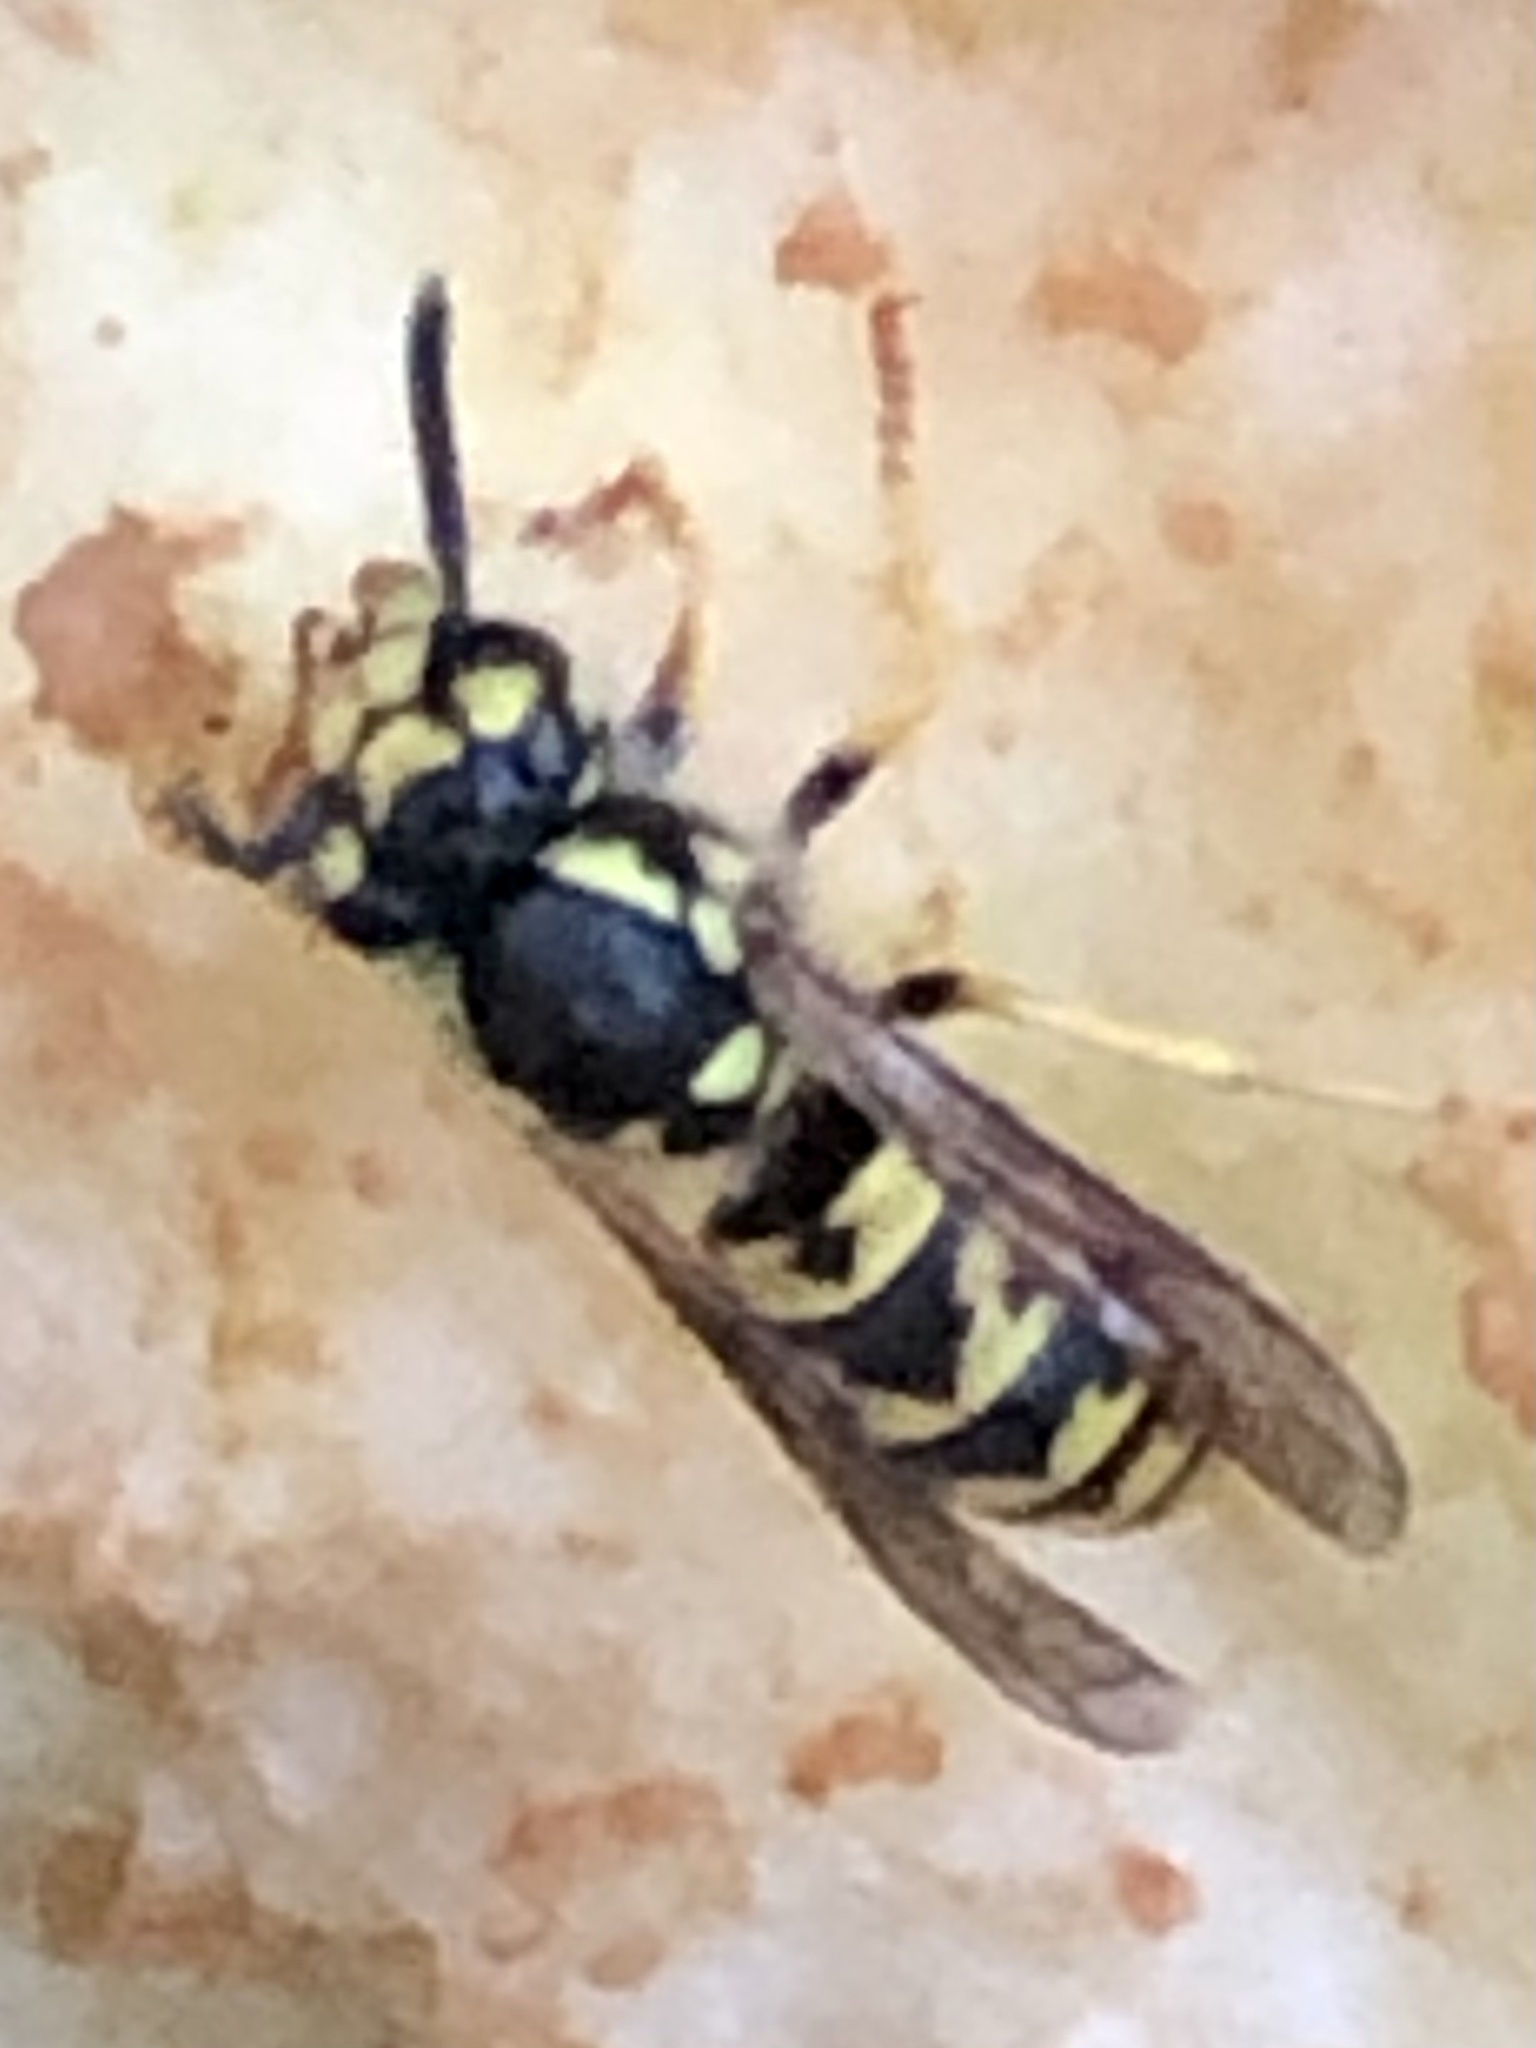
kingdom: Animalia
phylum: Arthropoda
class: Insecta
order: Hymenoptera
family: Vespidae
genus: Vespula
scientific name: Vespula germanica
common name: German wasp
